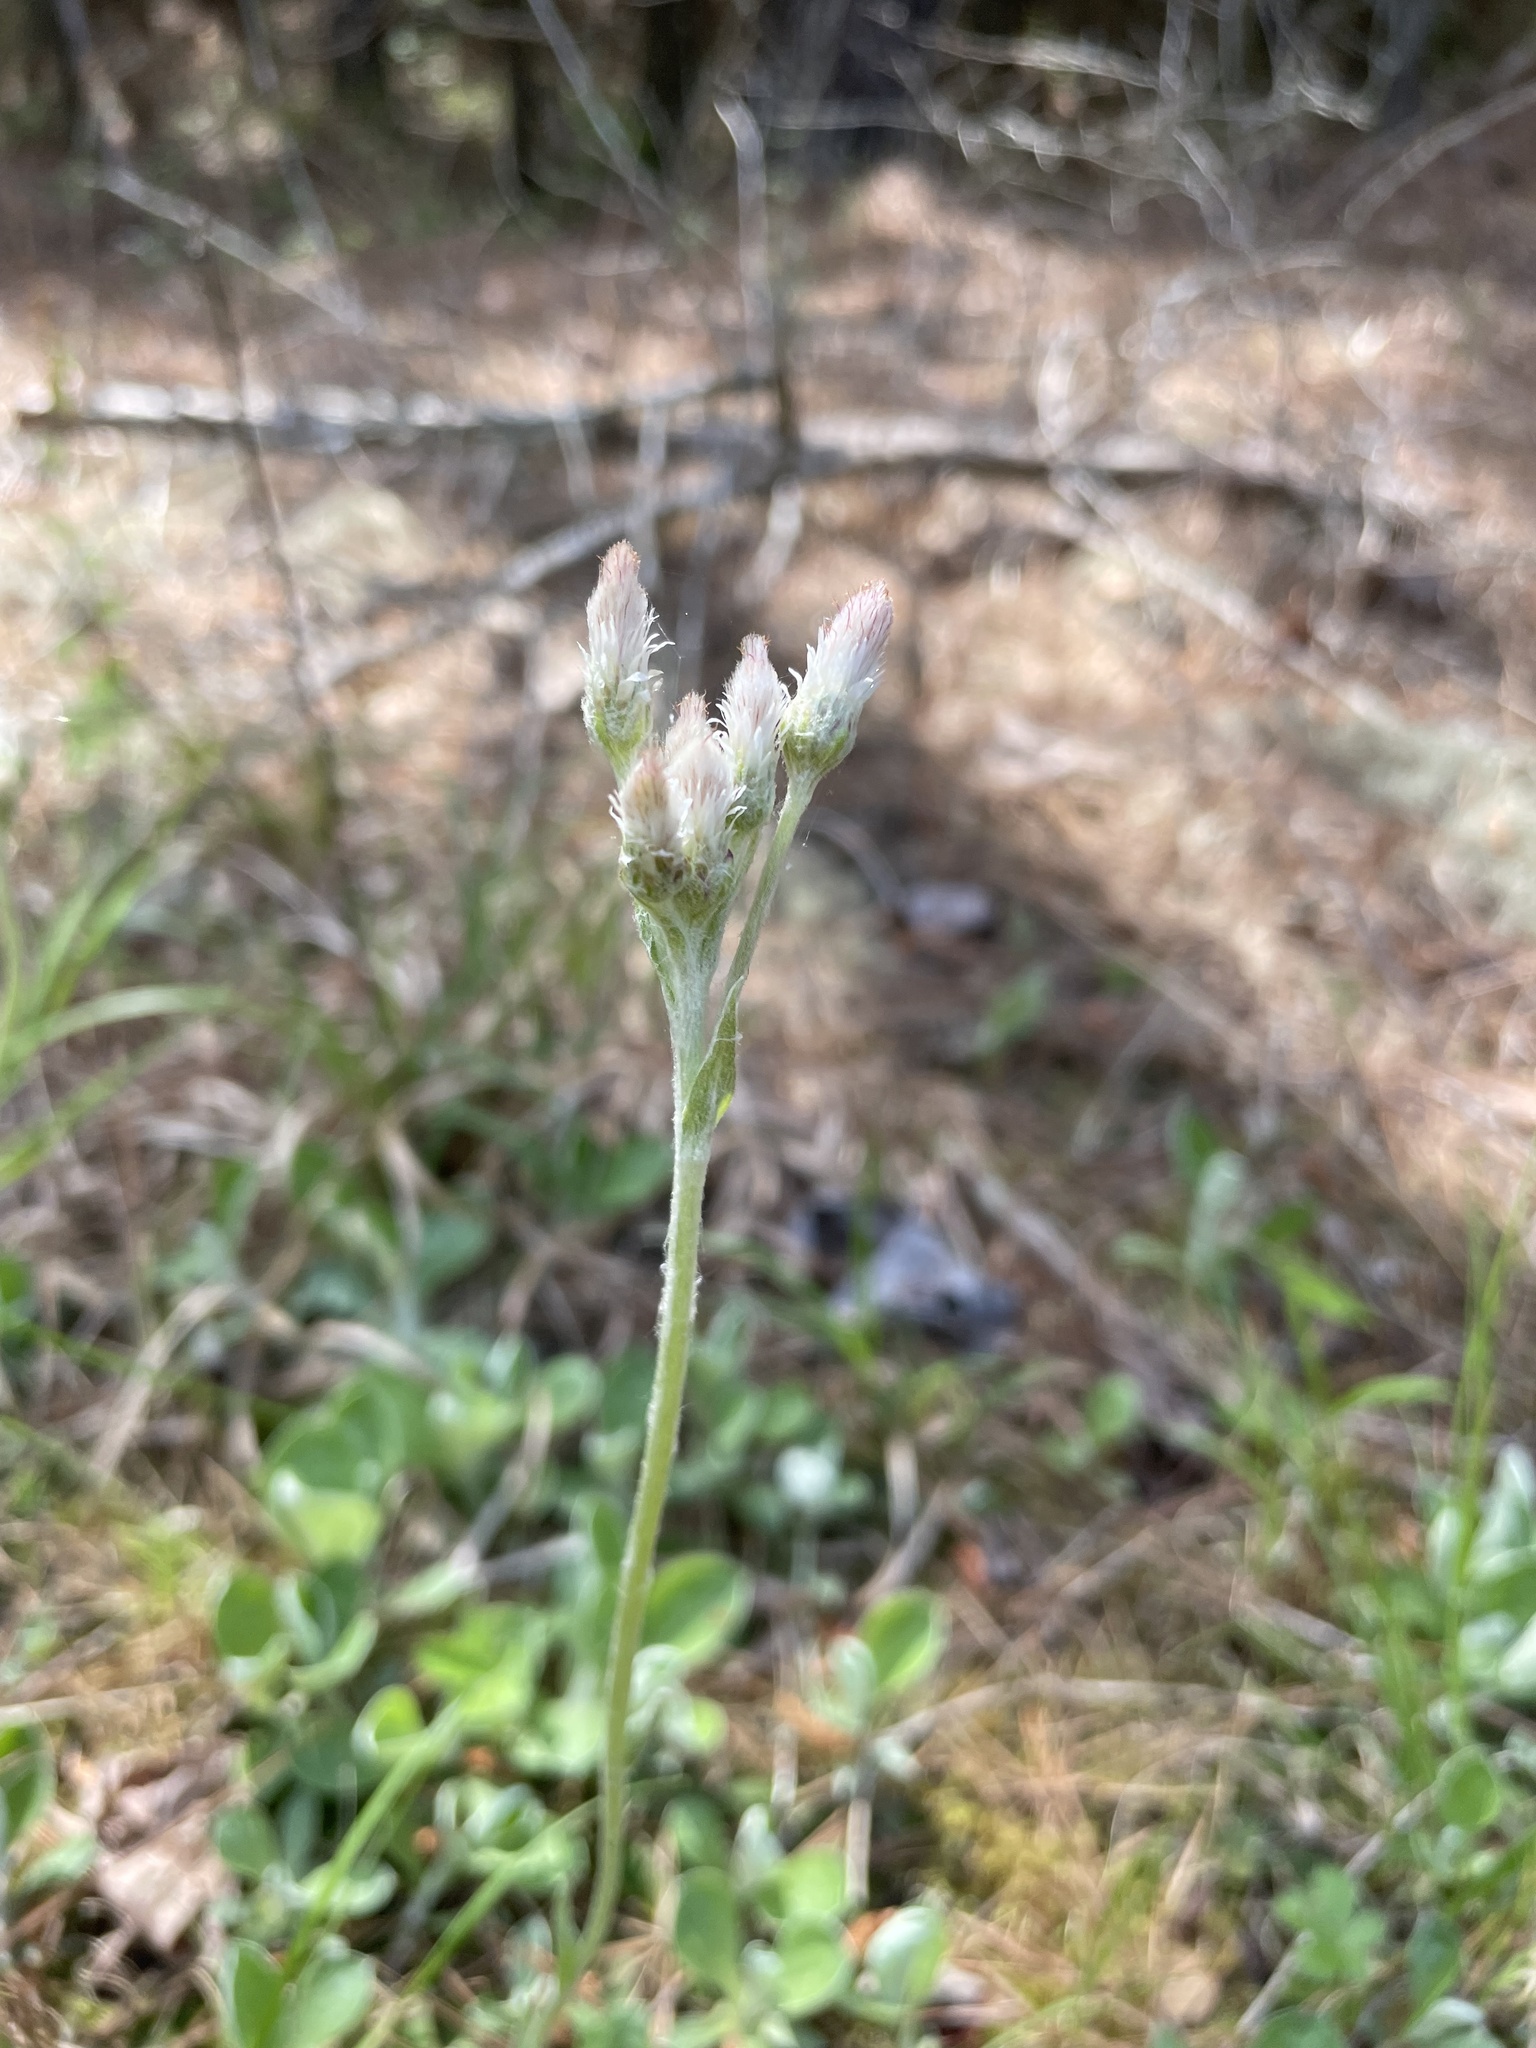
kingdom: Plantae
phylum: Tracheophyta
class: Magnoliopsida
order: Asterales
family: Asteraceae
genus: Antennaria
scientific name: Antennaria parlinii
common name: Parlin's pussytoes
